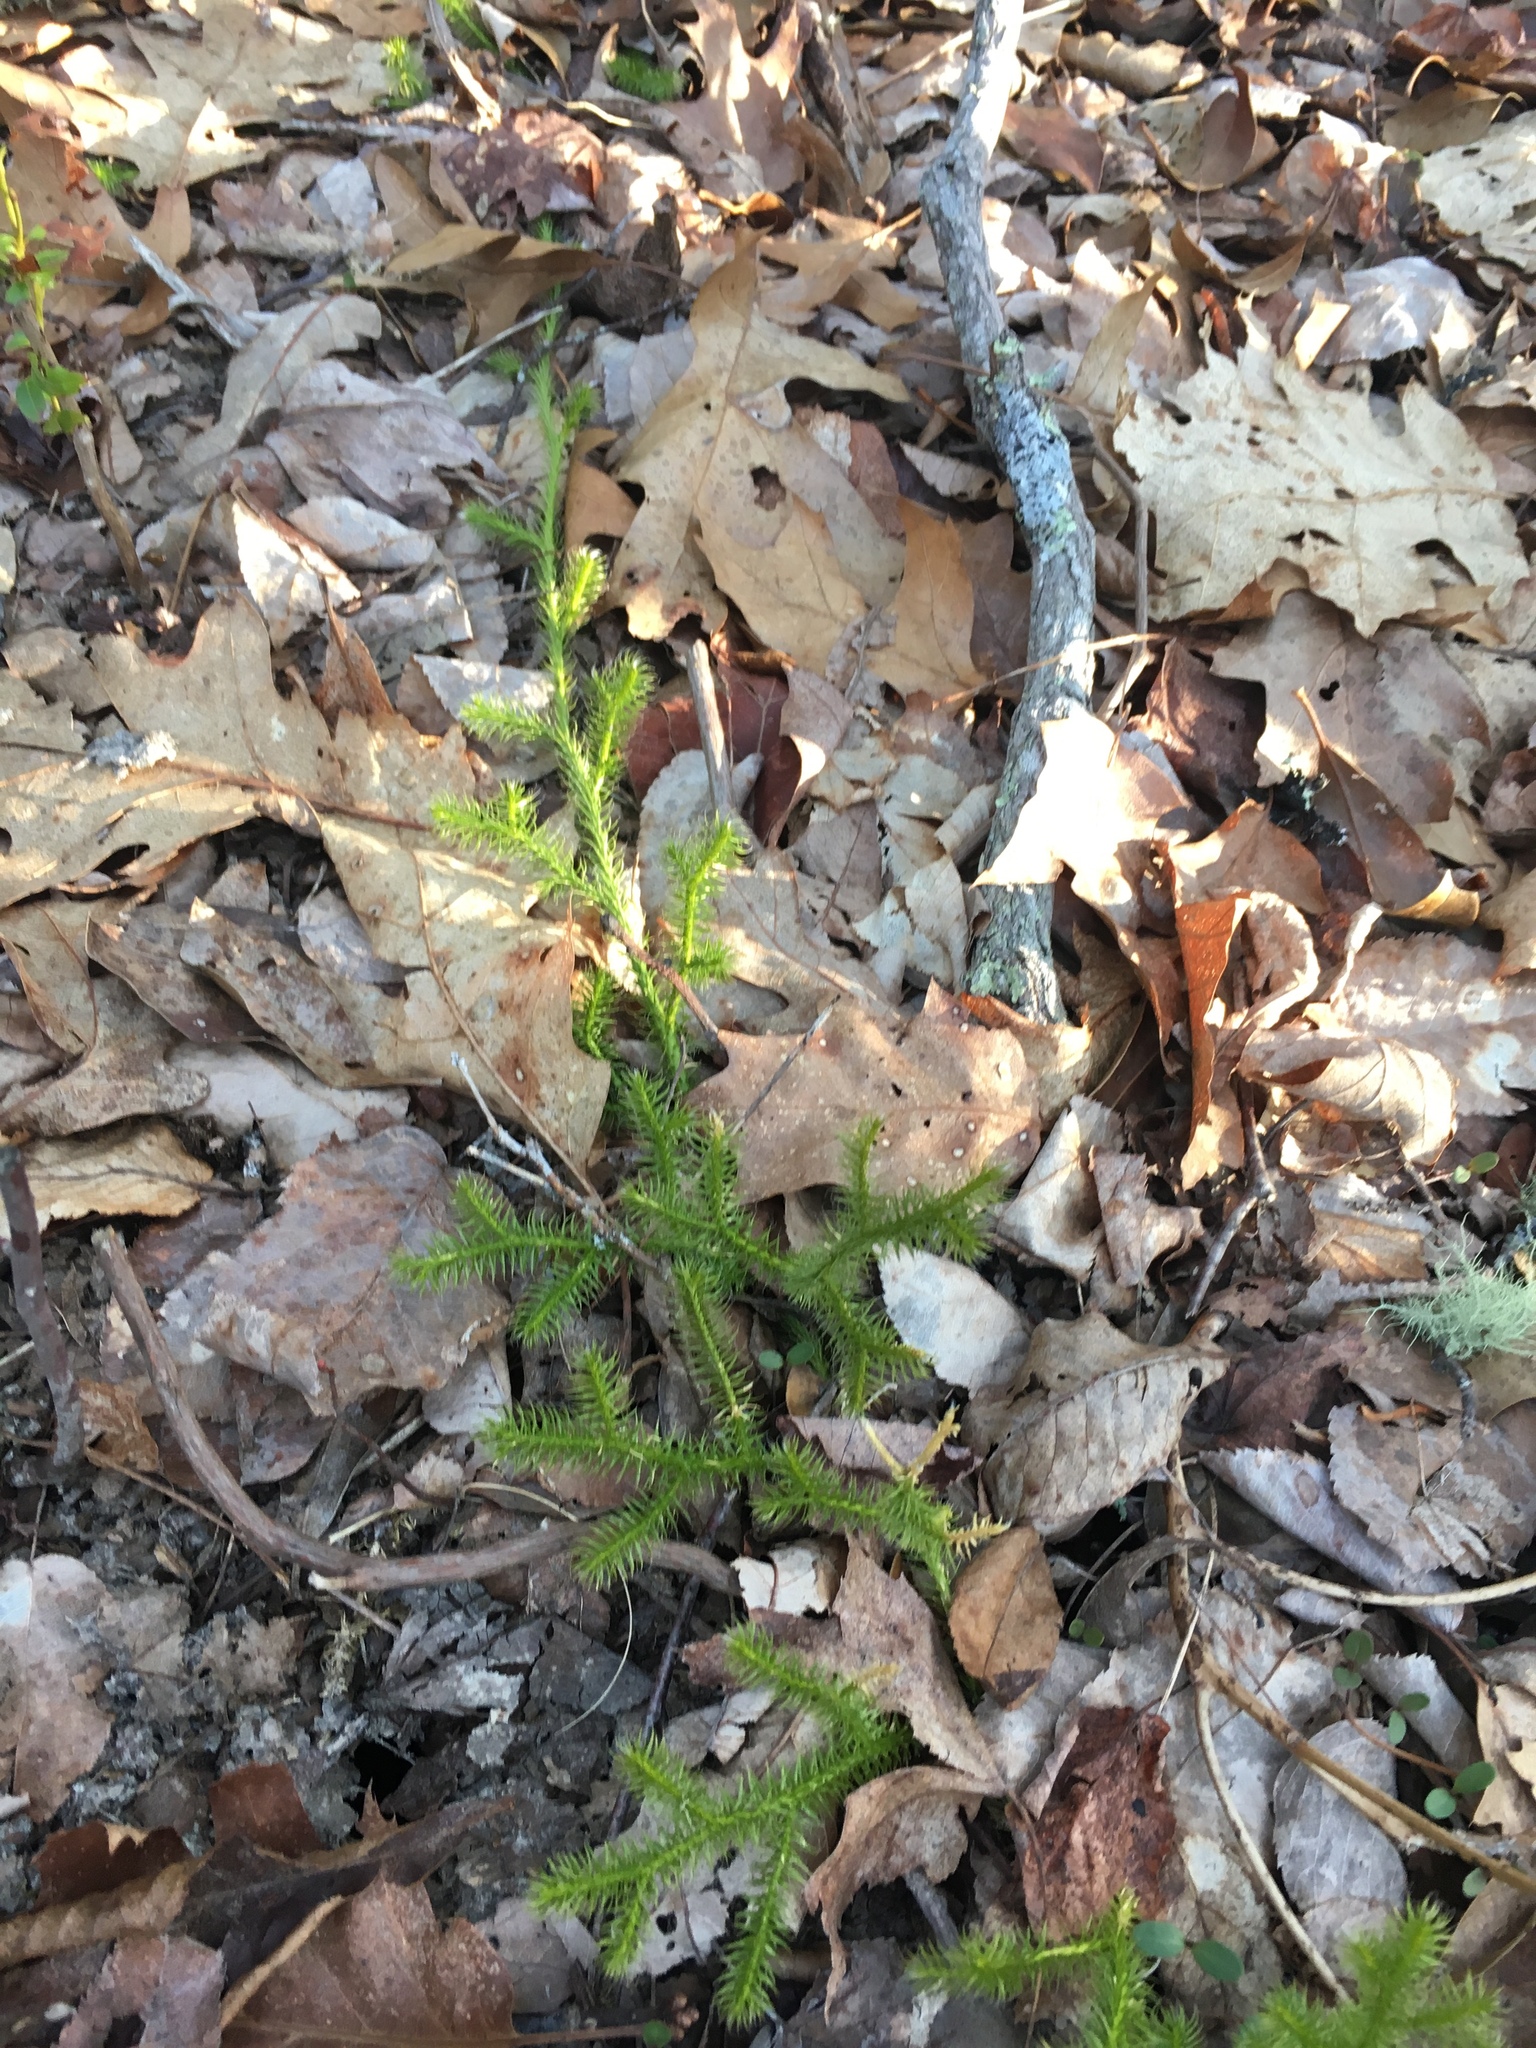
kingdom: Plantae
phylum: Tracheophyta
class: Lycopodiopsida
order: Lycopodiales
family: Lycopodiaceae
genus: Lycopodium
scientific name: Lycopodium clavatum
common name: Stag's-horn clubmoss
